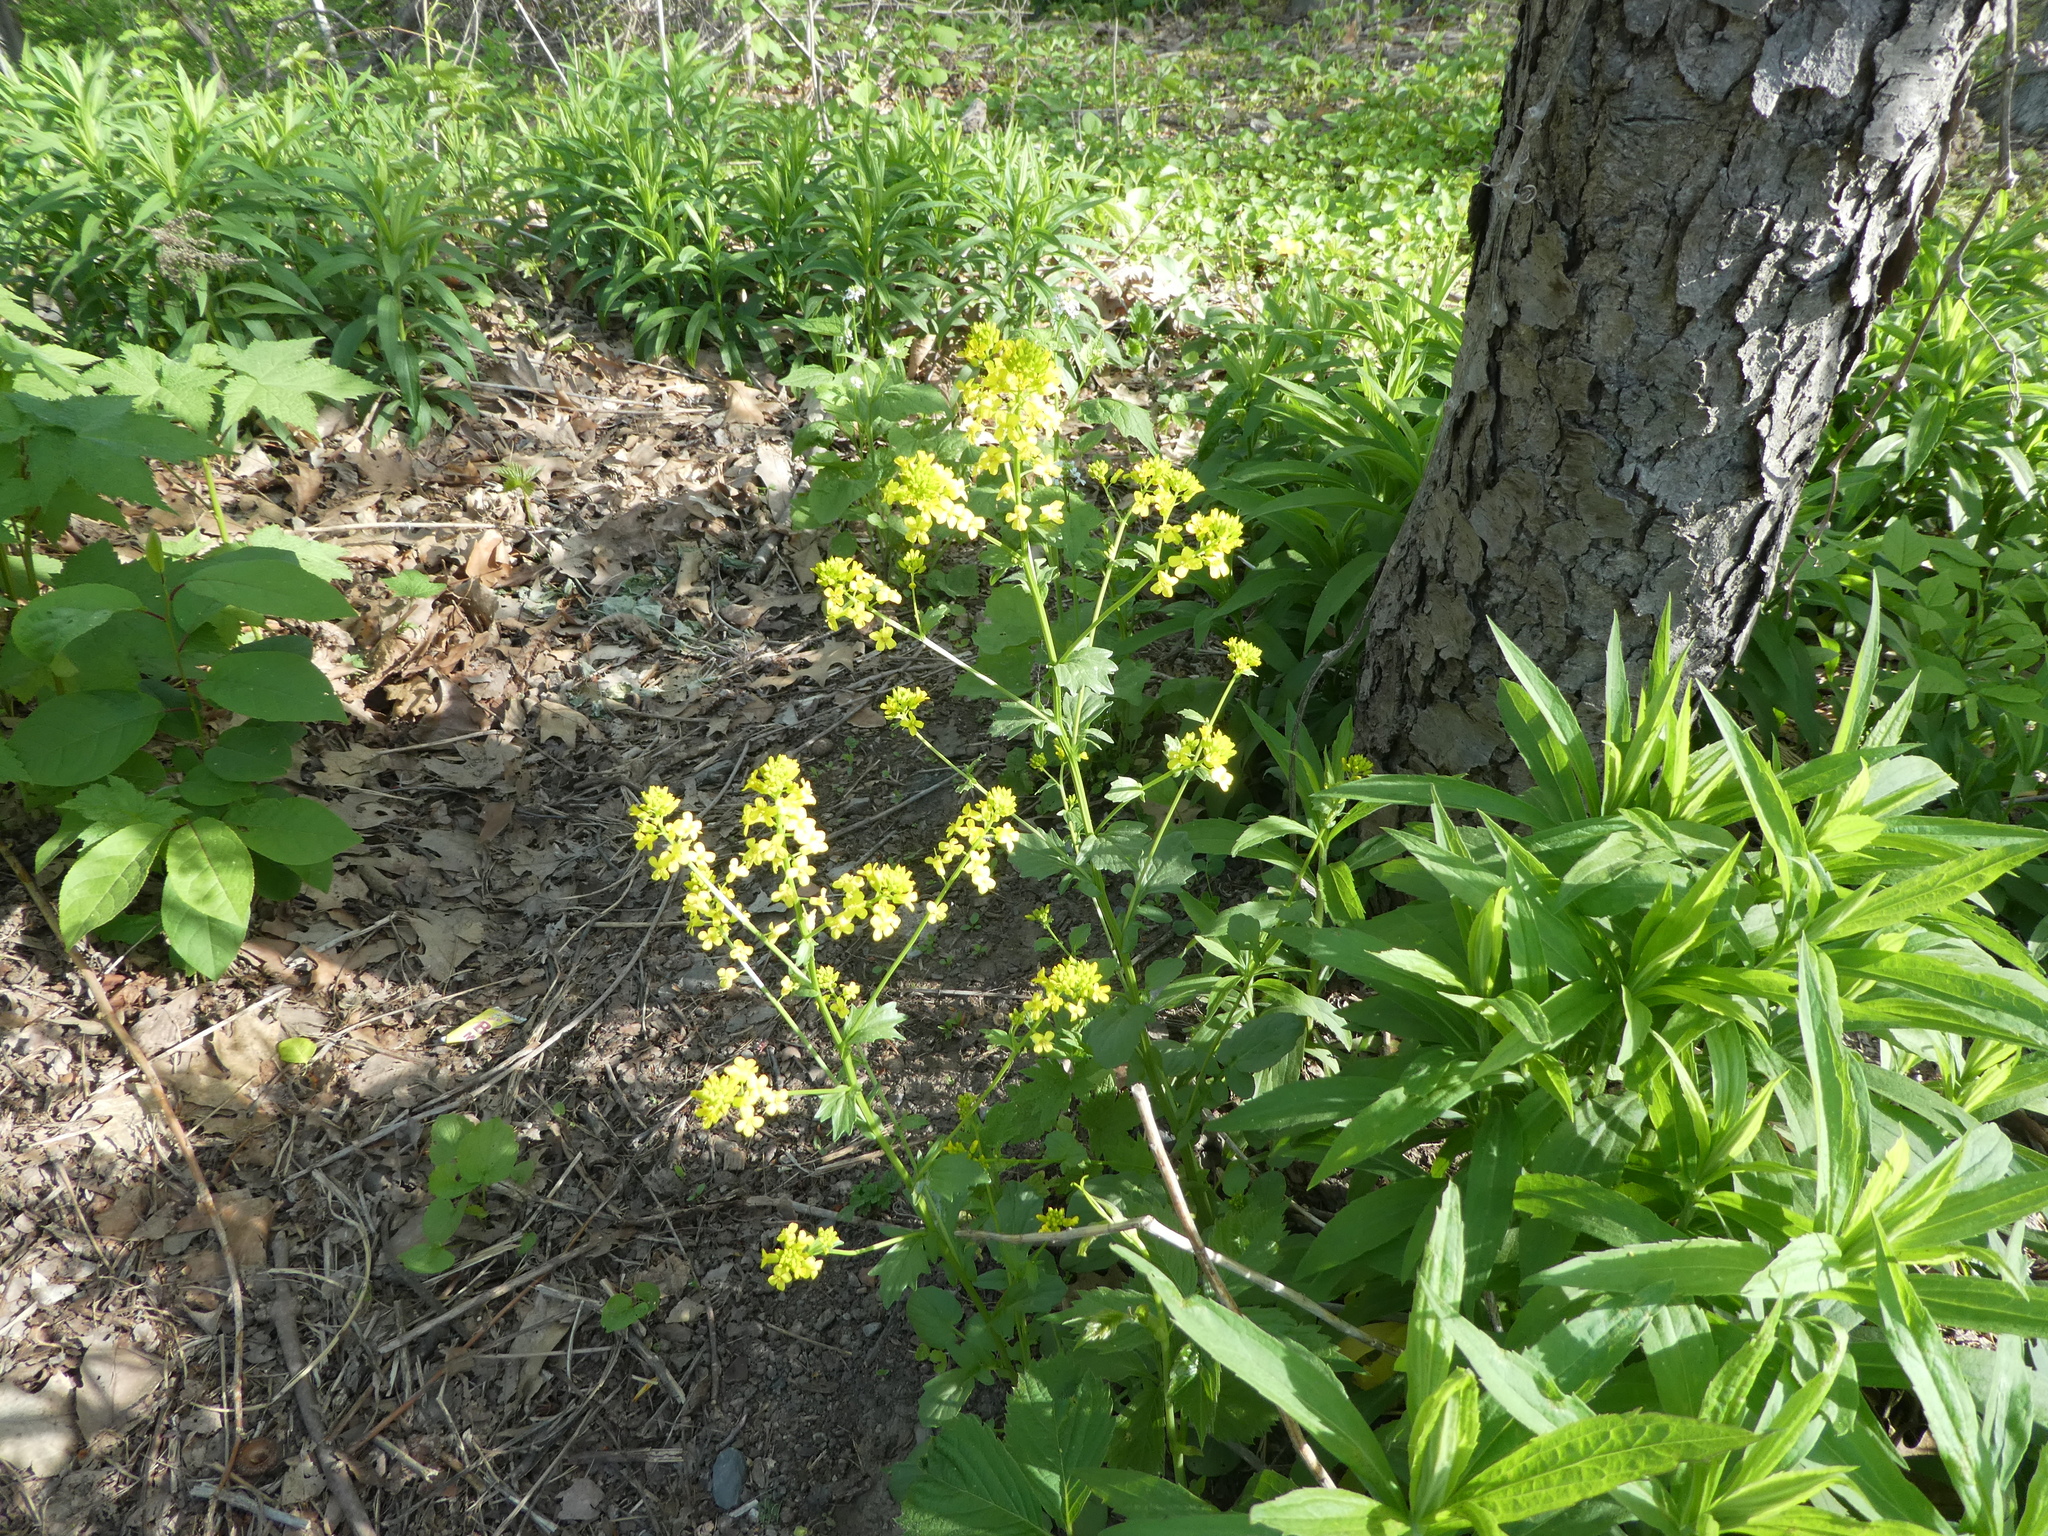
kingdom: Plantae
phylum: Tracheophyta
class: Magnoliopsida
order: Brassicales
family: Brassicaceae
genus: Barbarea
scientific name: Barbarea vulgaris
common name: Cressy-greens
